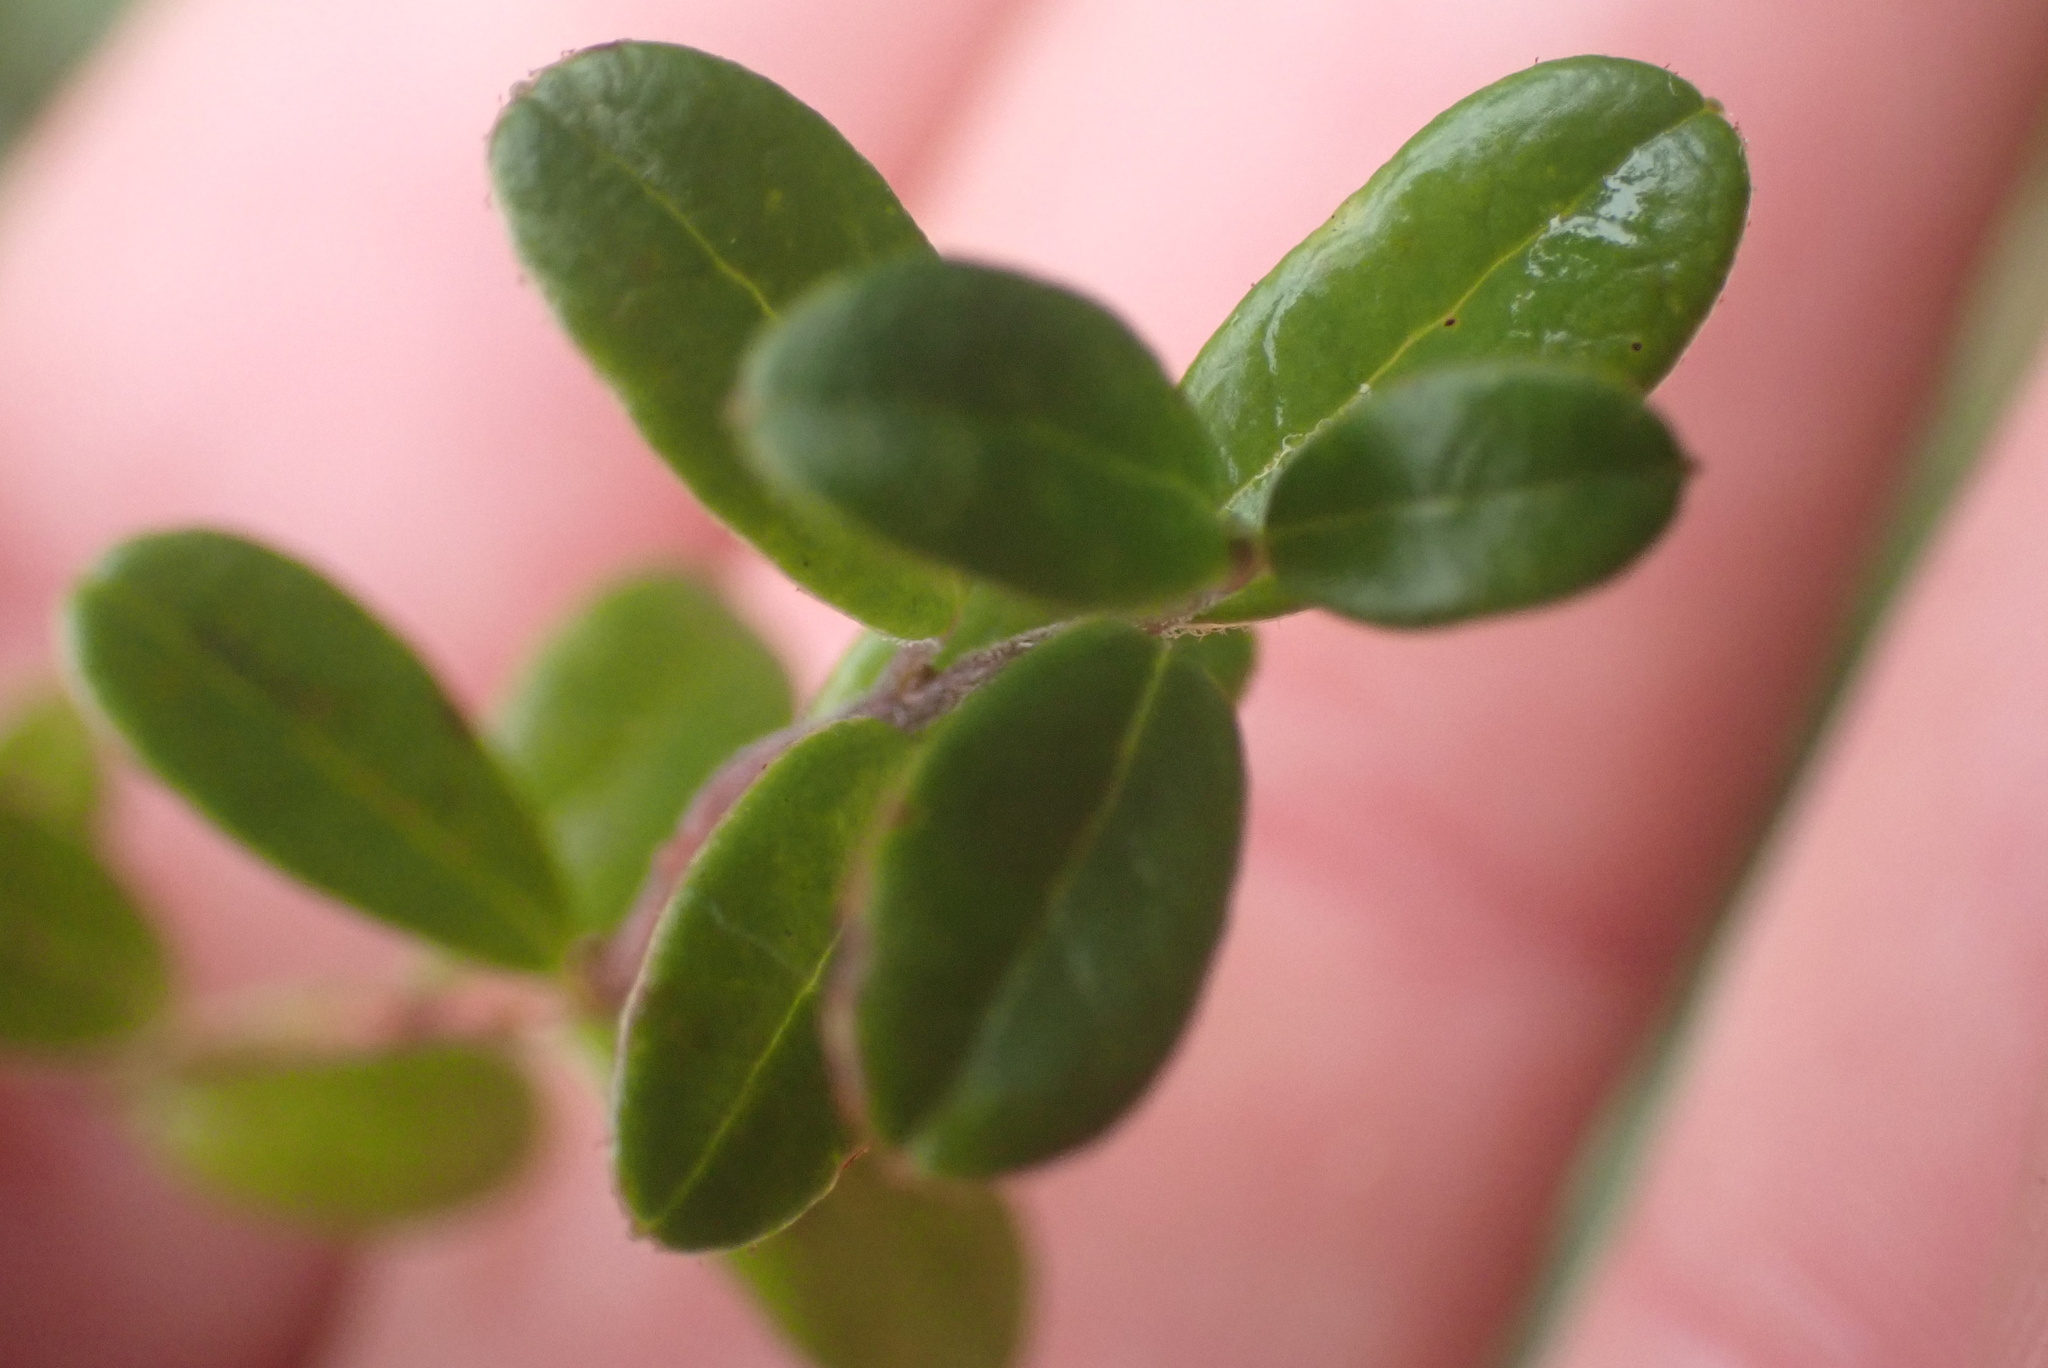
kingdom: Plantae
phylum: Tracheophyta
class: Magnoliopsida
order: Ericales
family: Ericaceae
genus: Vaccinium
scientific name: Vaccinium vitis-idaea
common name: Cowberry
